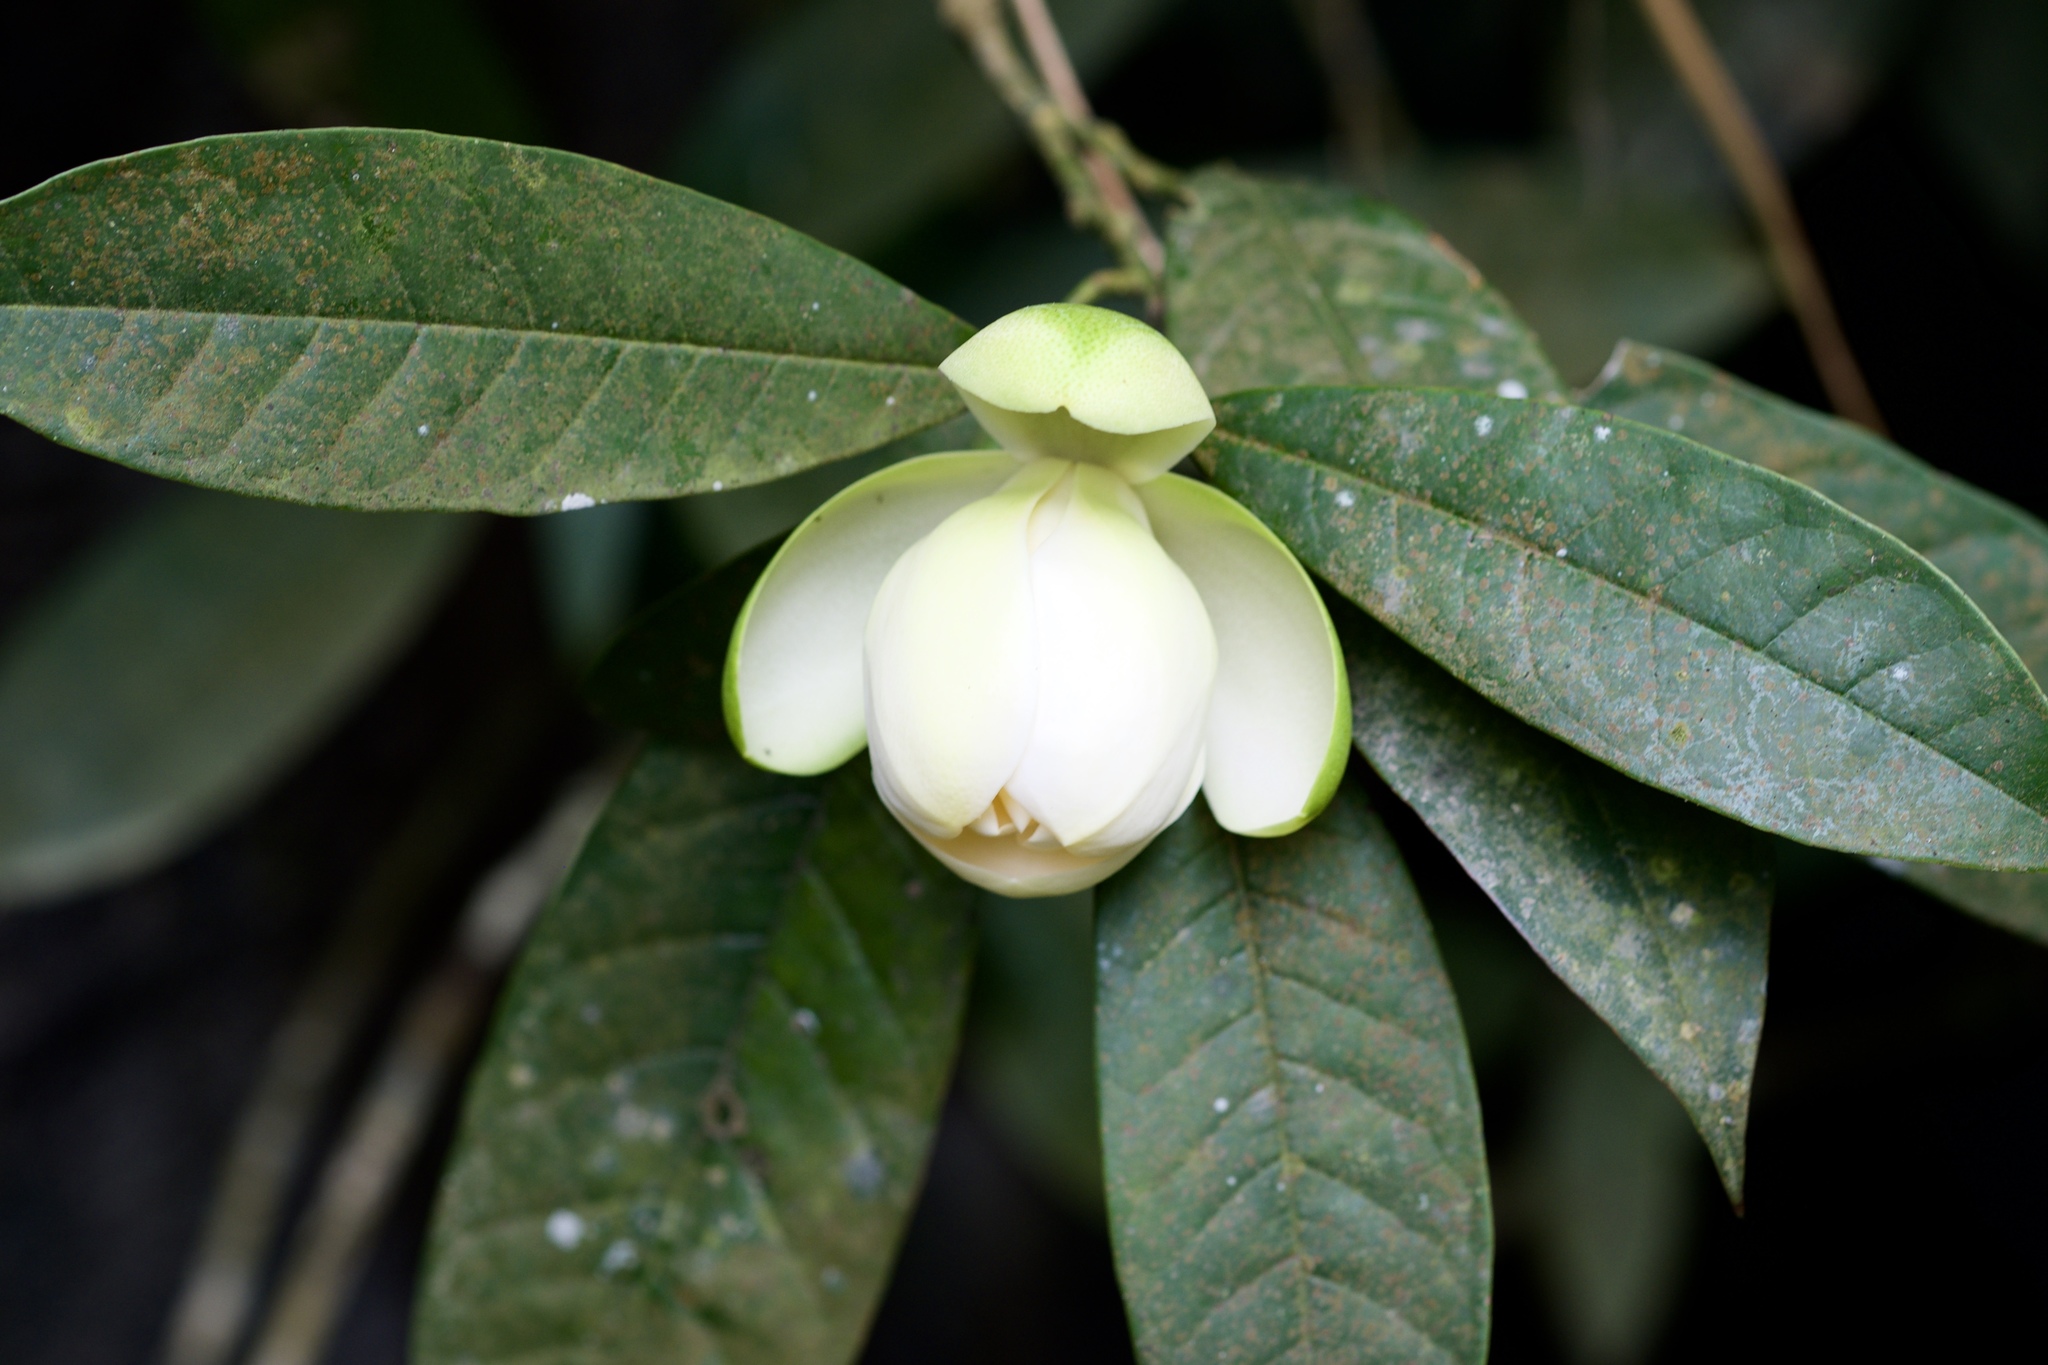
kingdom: Plantae
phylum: Tracheophyta
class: Magnoliopsida
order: Magnoliales
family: Magnoliaceae
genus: Magnolia
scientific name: Magnolia coco
